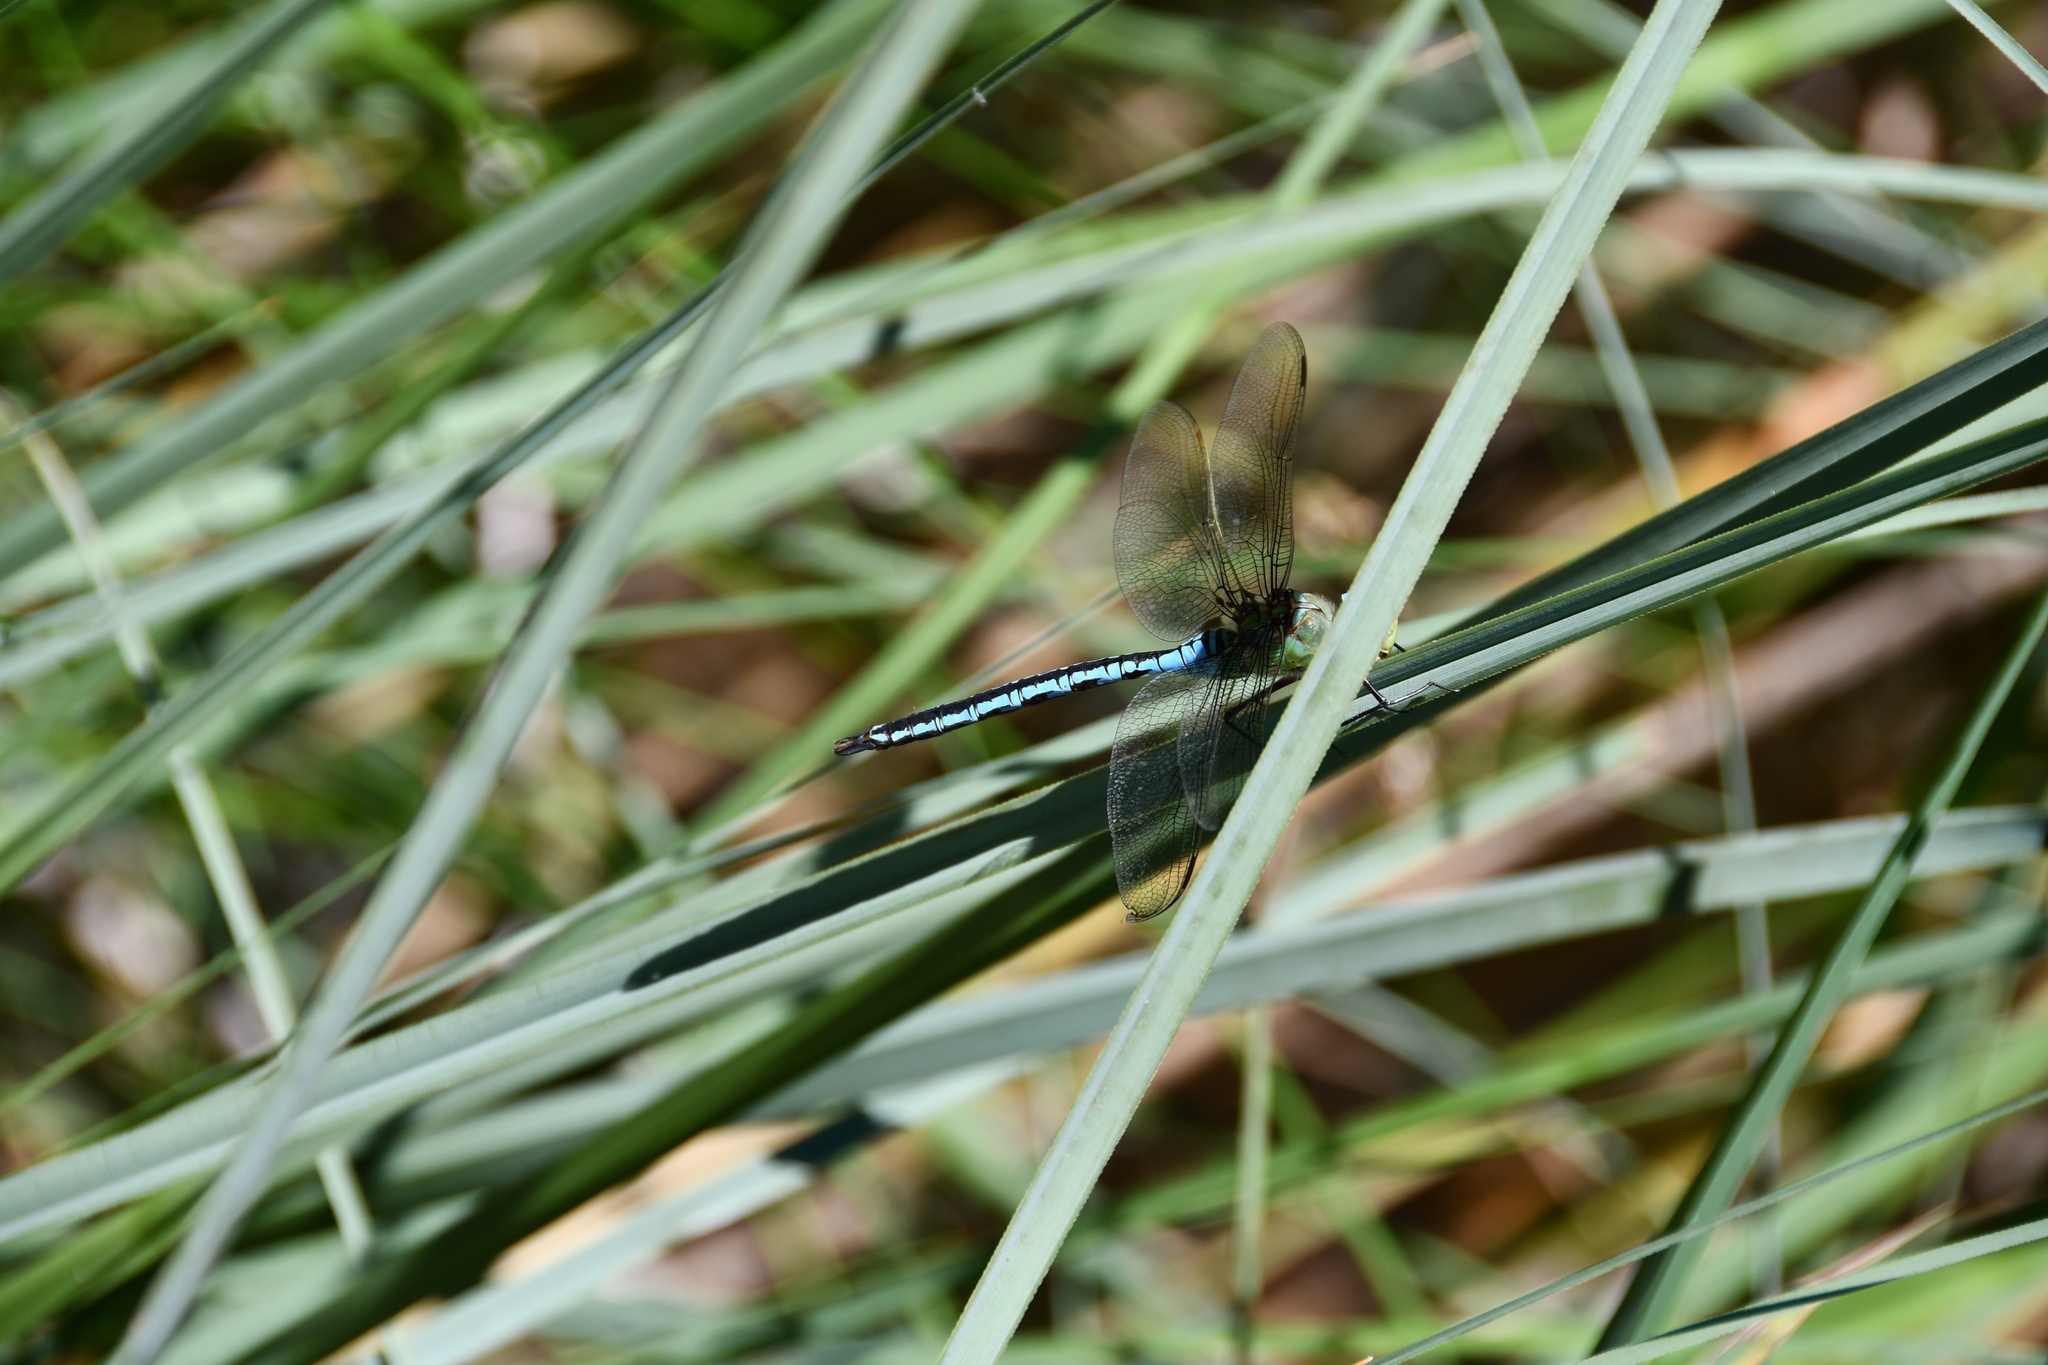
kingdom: Animalia
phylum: Arthropoda
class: Insecta
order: Odonata
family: Aeshnidae
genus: Anax
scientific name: Anax imperator
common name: Emperor dragonfly
